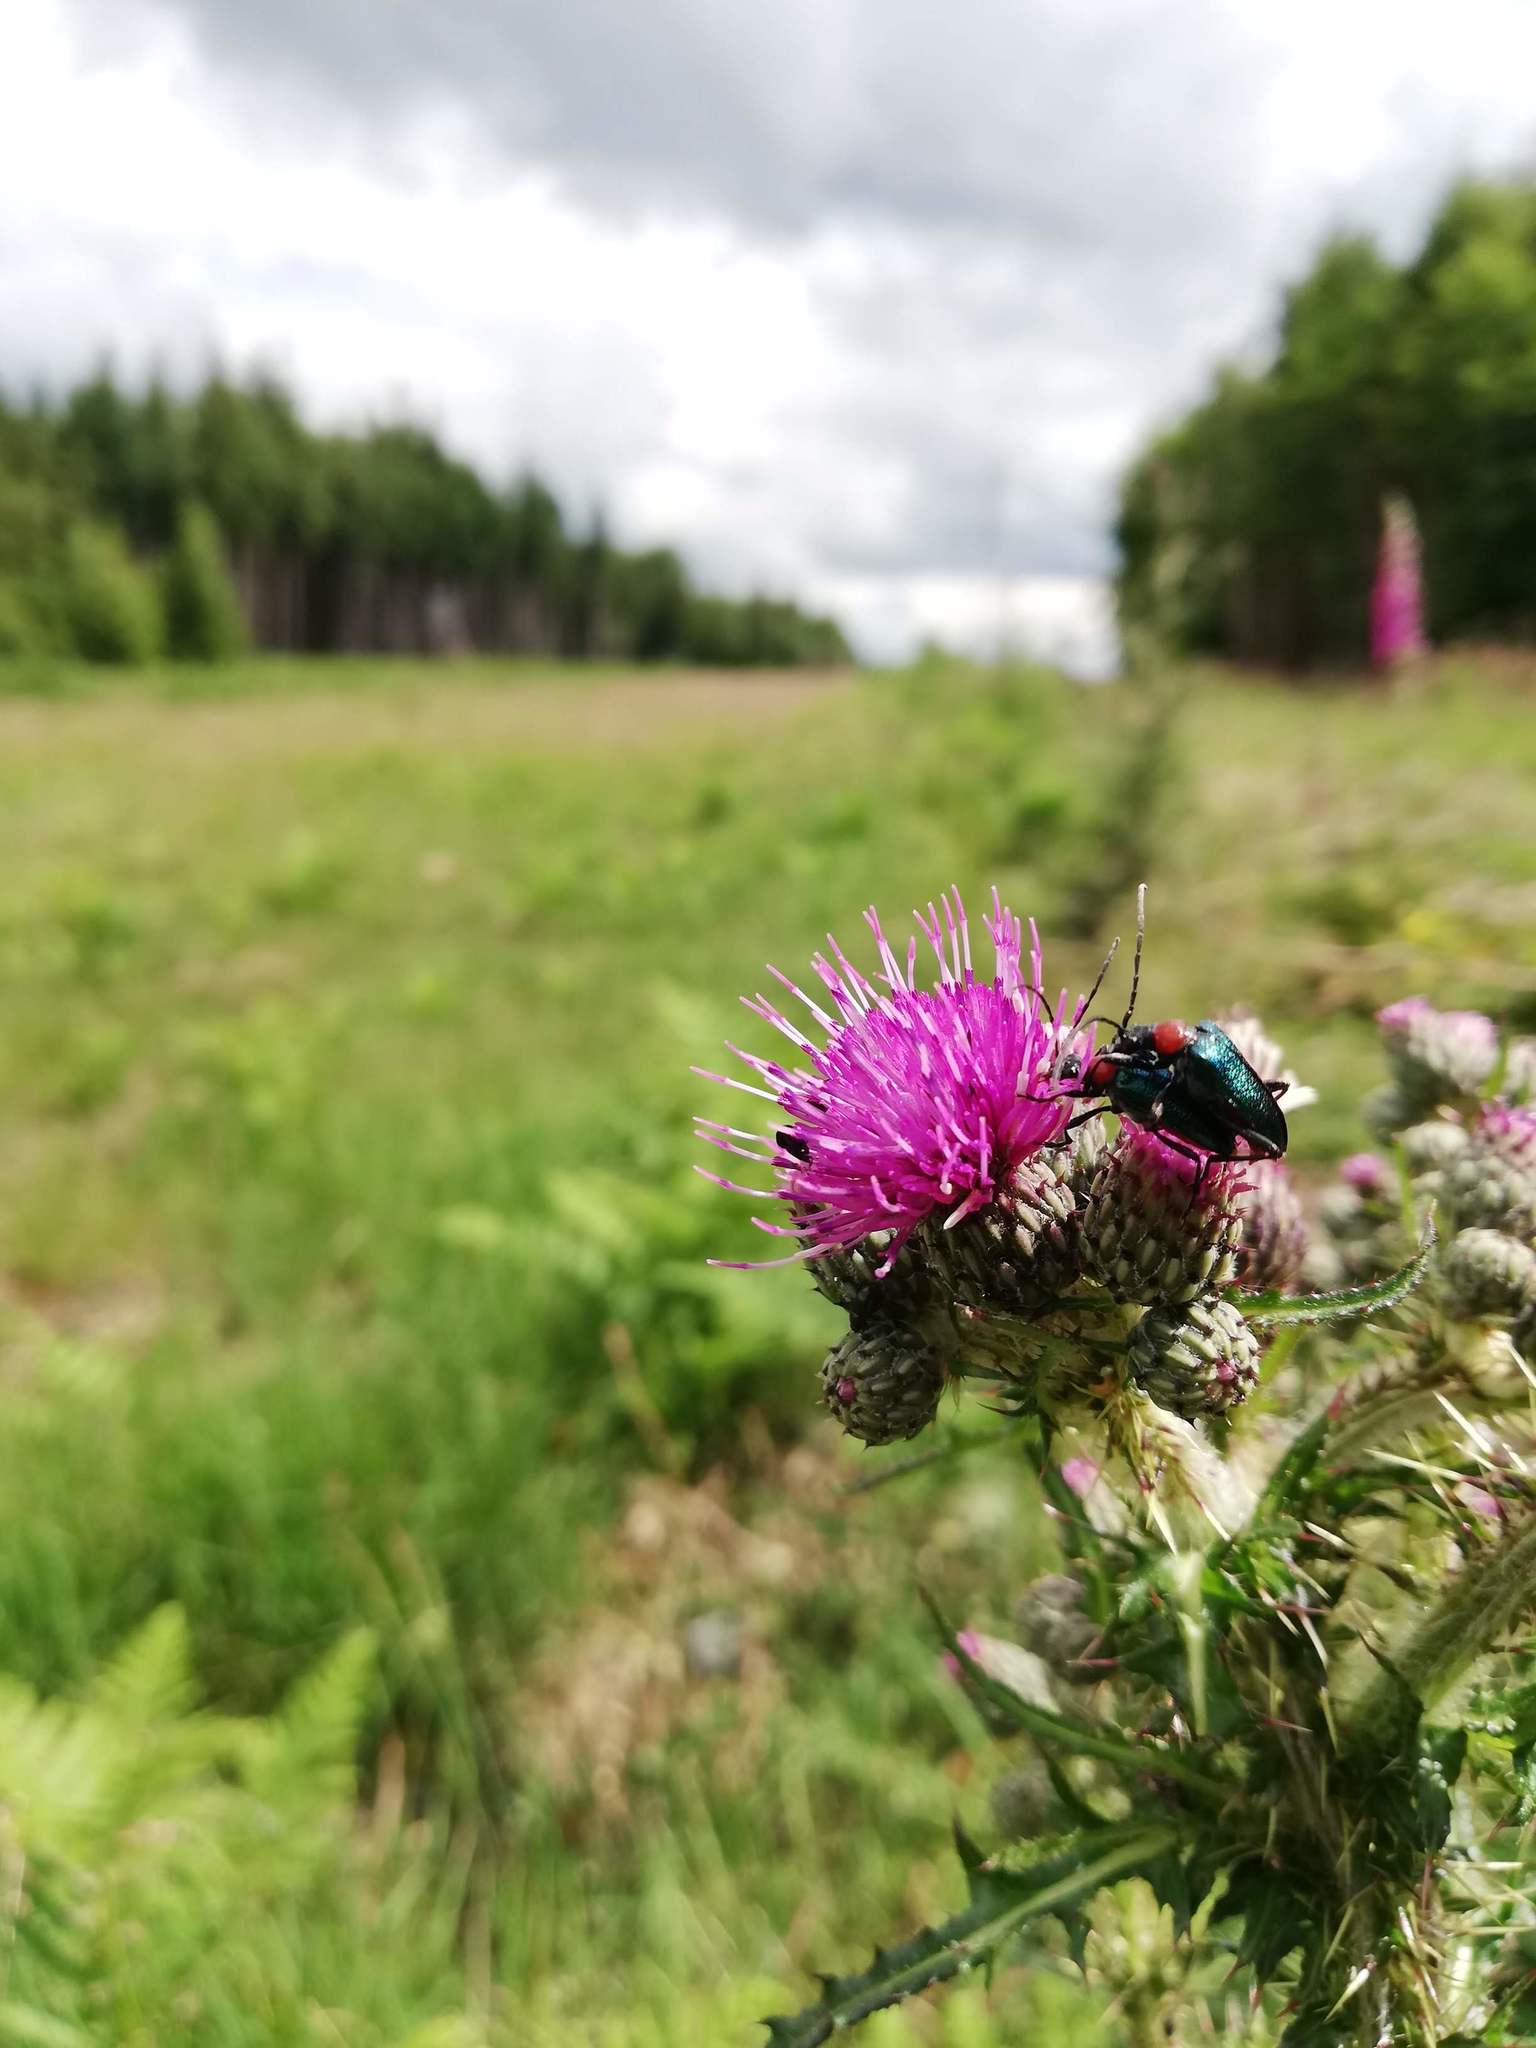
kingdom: Animalia
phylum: Arthropoda
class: Insecta
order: Coleoptera
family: Coccinellidae
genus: Coccinella
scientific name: Coccinella septempunctata
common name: Sevenspotted lady beetle
